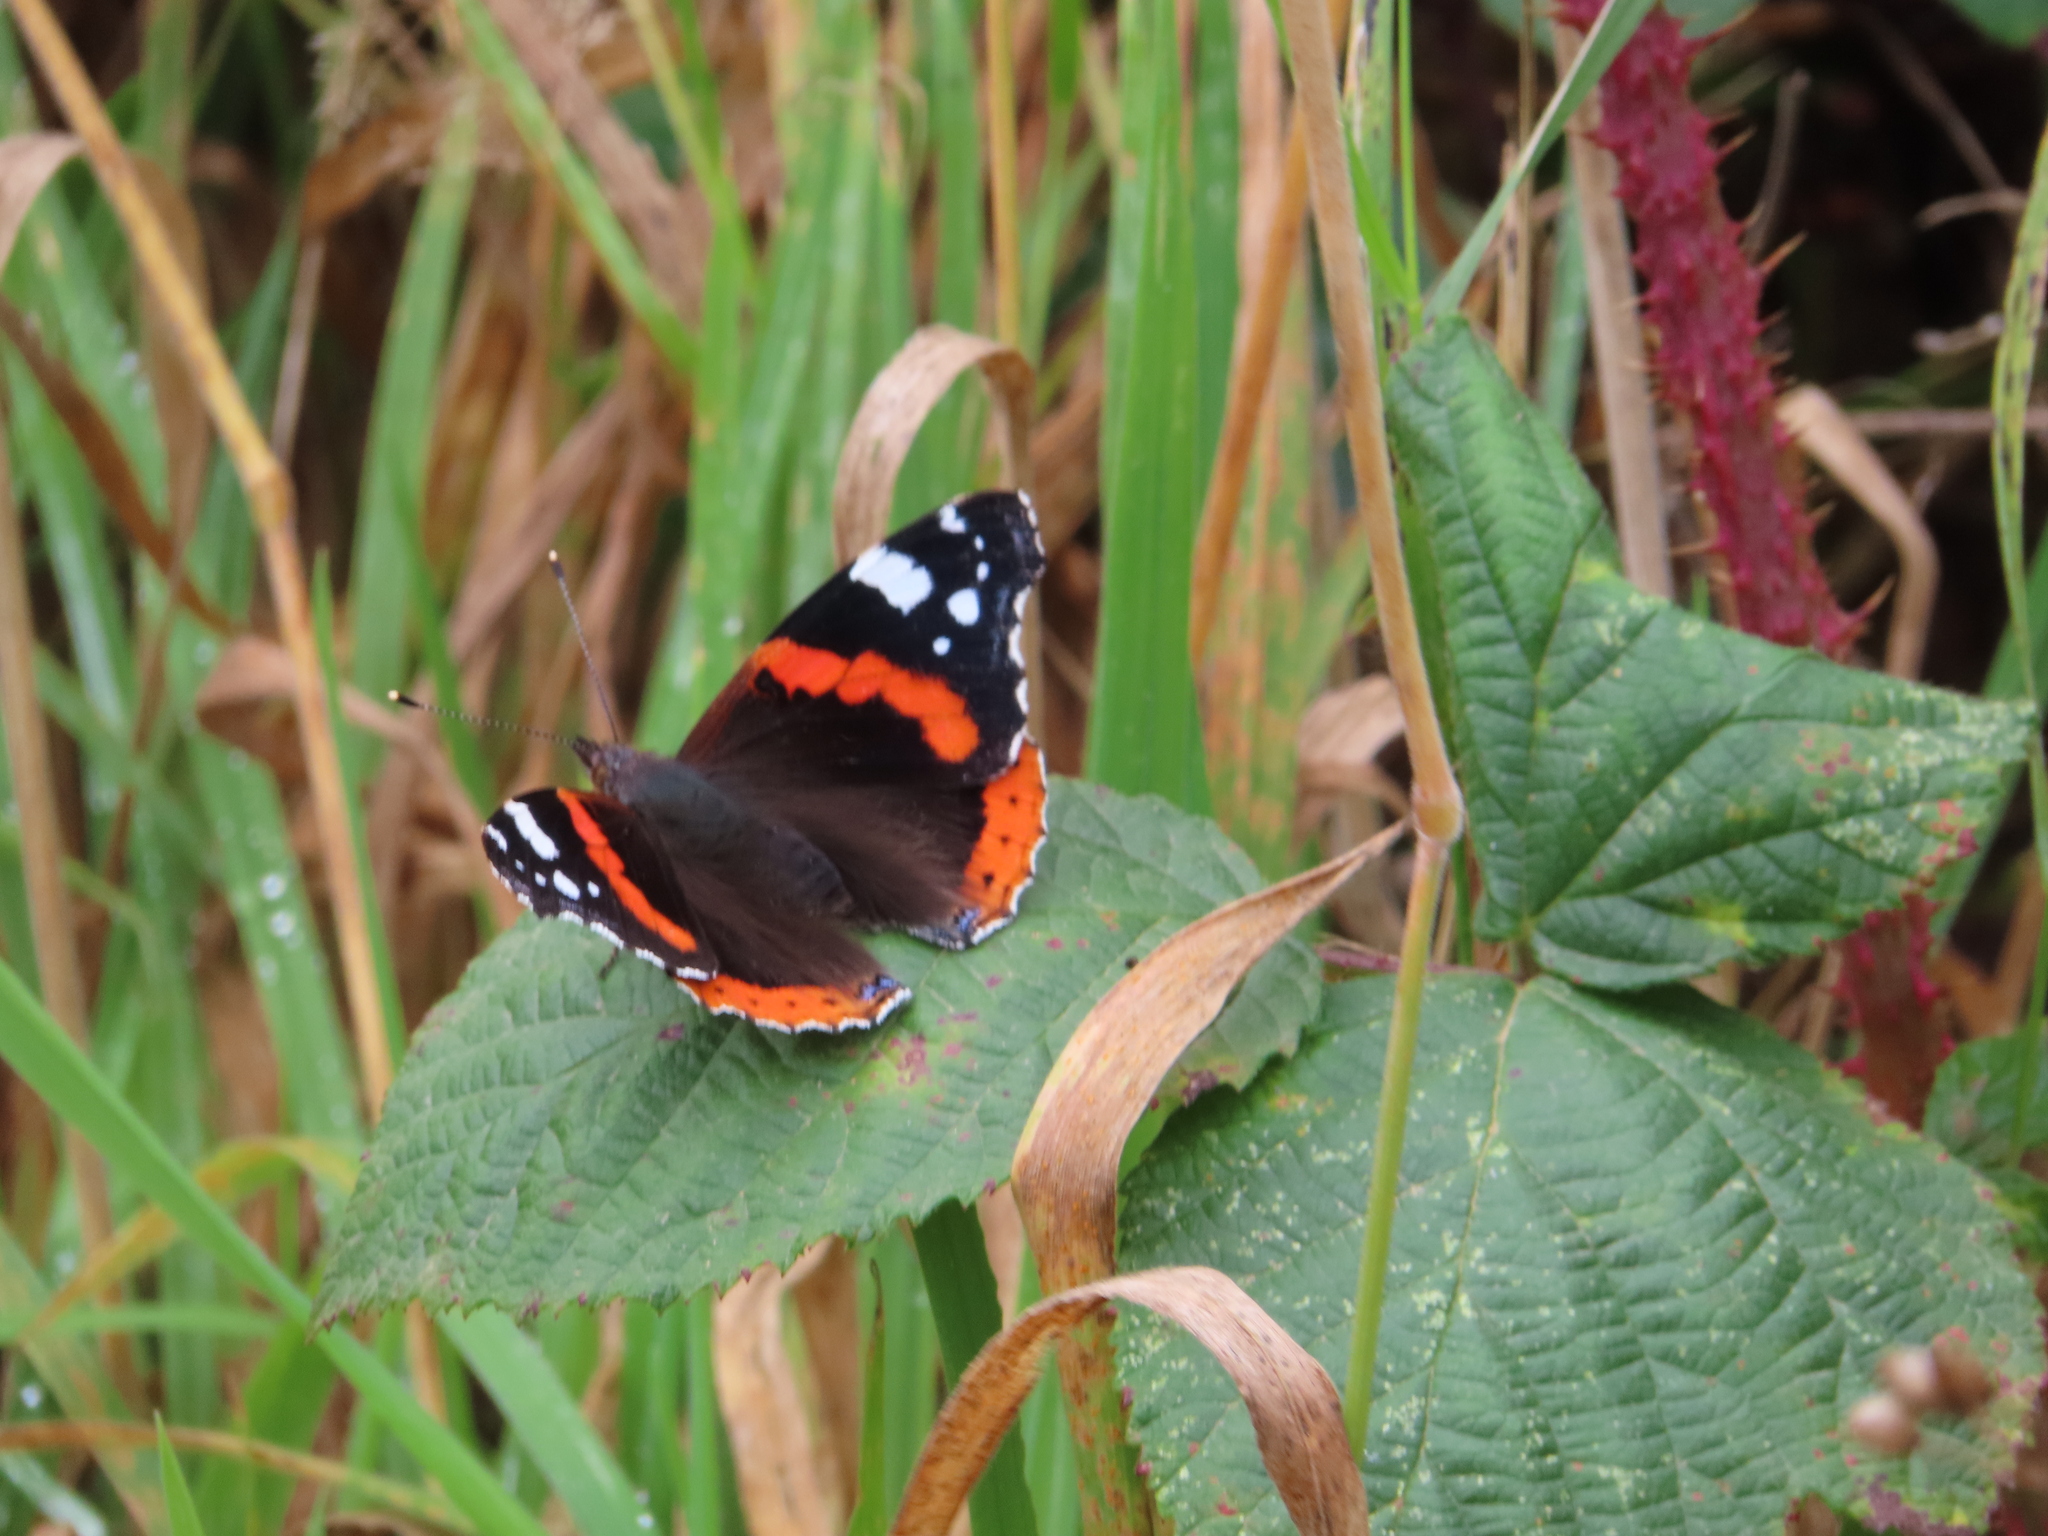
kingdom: Animalia
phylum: Arthropoda
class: Insecta
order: Lepidoptera
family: Nymphalidae
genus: Vanessa
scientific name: Vanessa atalanta
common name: Red admiral
